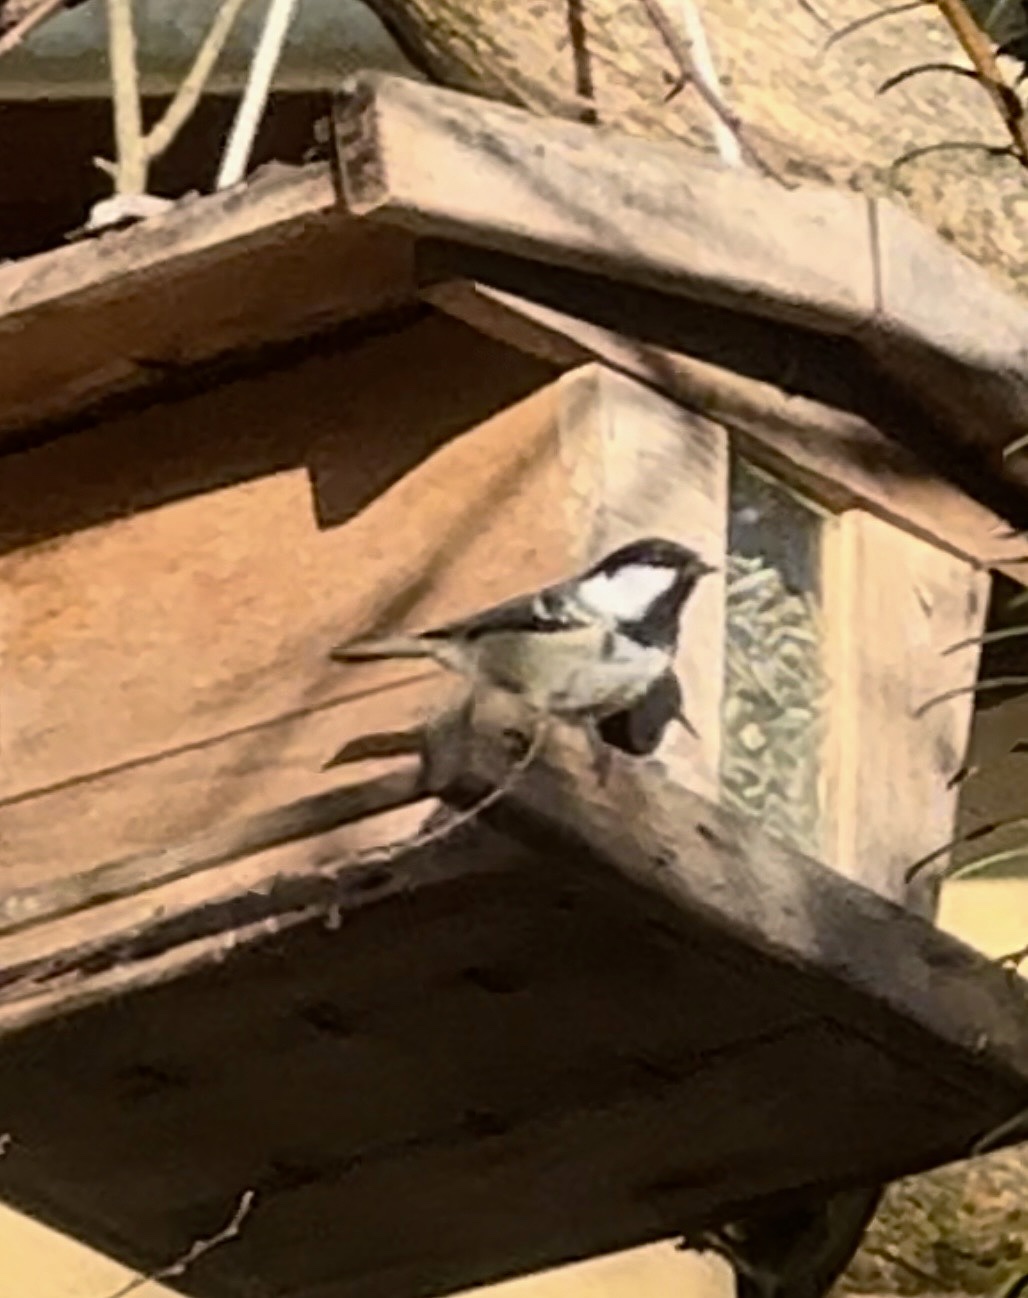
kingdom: Animalia
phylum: Chordata
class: Aves
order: Passeriformes
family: Paridae
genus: Periparus
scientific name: Periparus ater
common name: Coal tit
